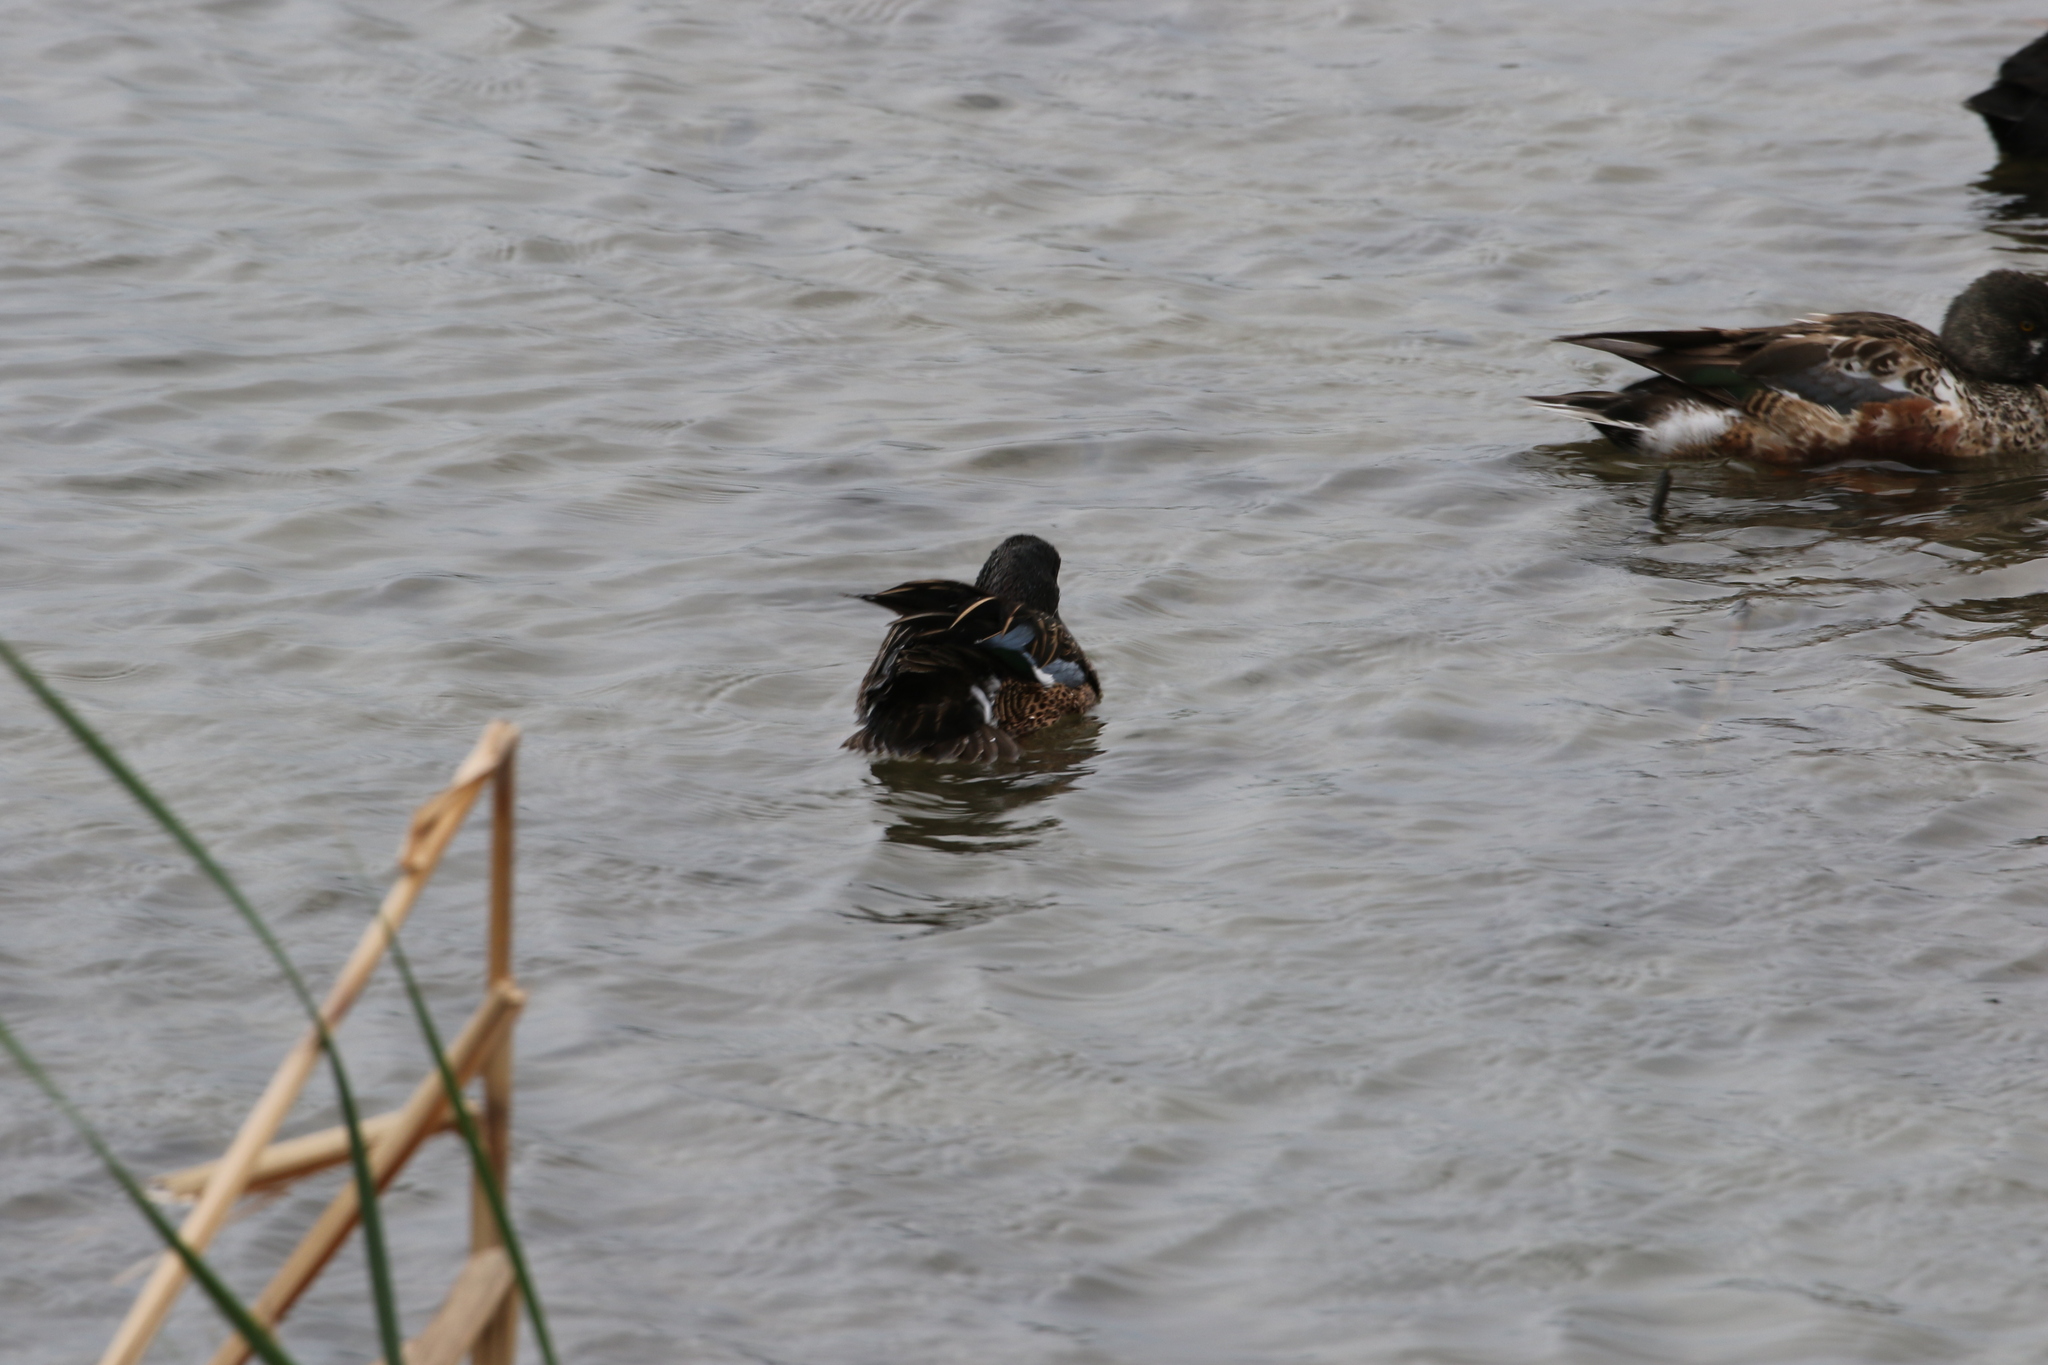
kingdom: Animalia
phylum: Chordata
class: Aves
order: Anseriformes
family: Anatidae
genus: Spatula
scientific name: Spatula discors
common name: Blue-winged teal
